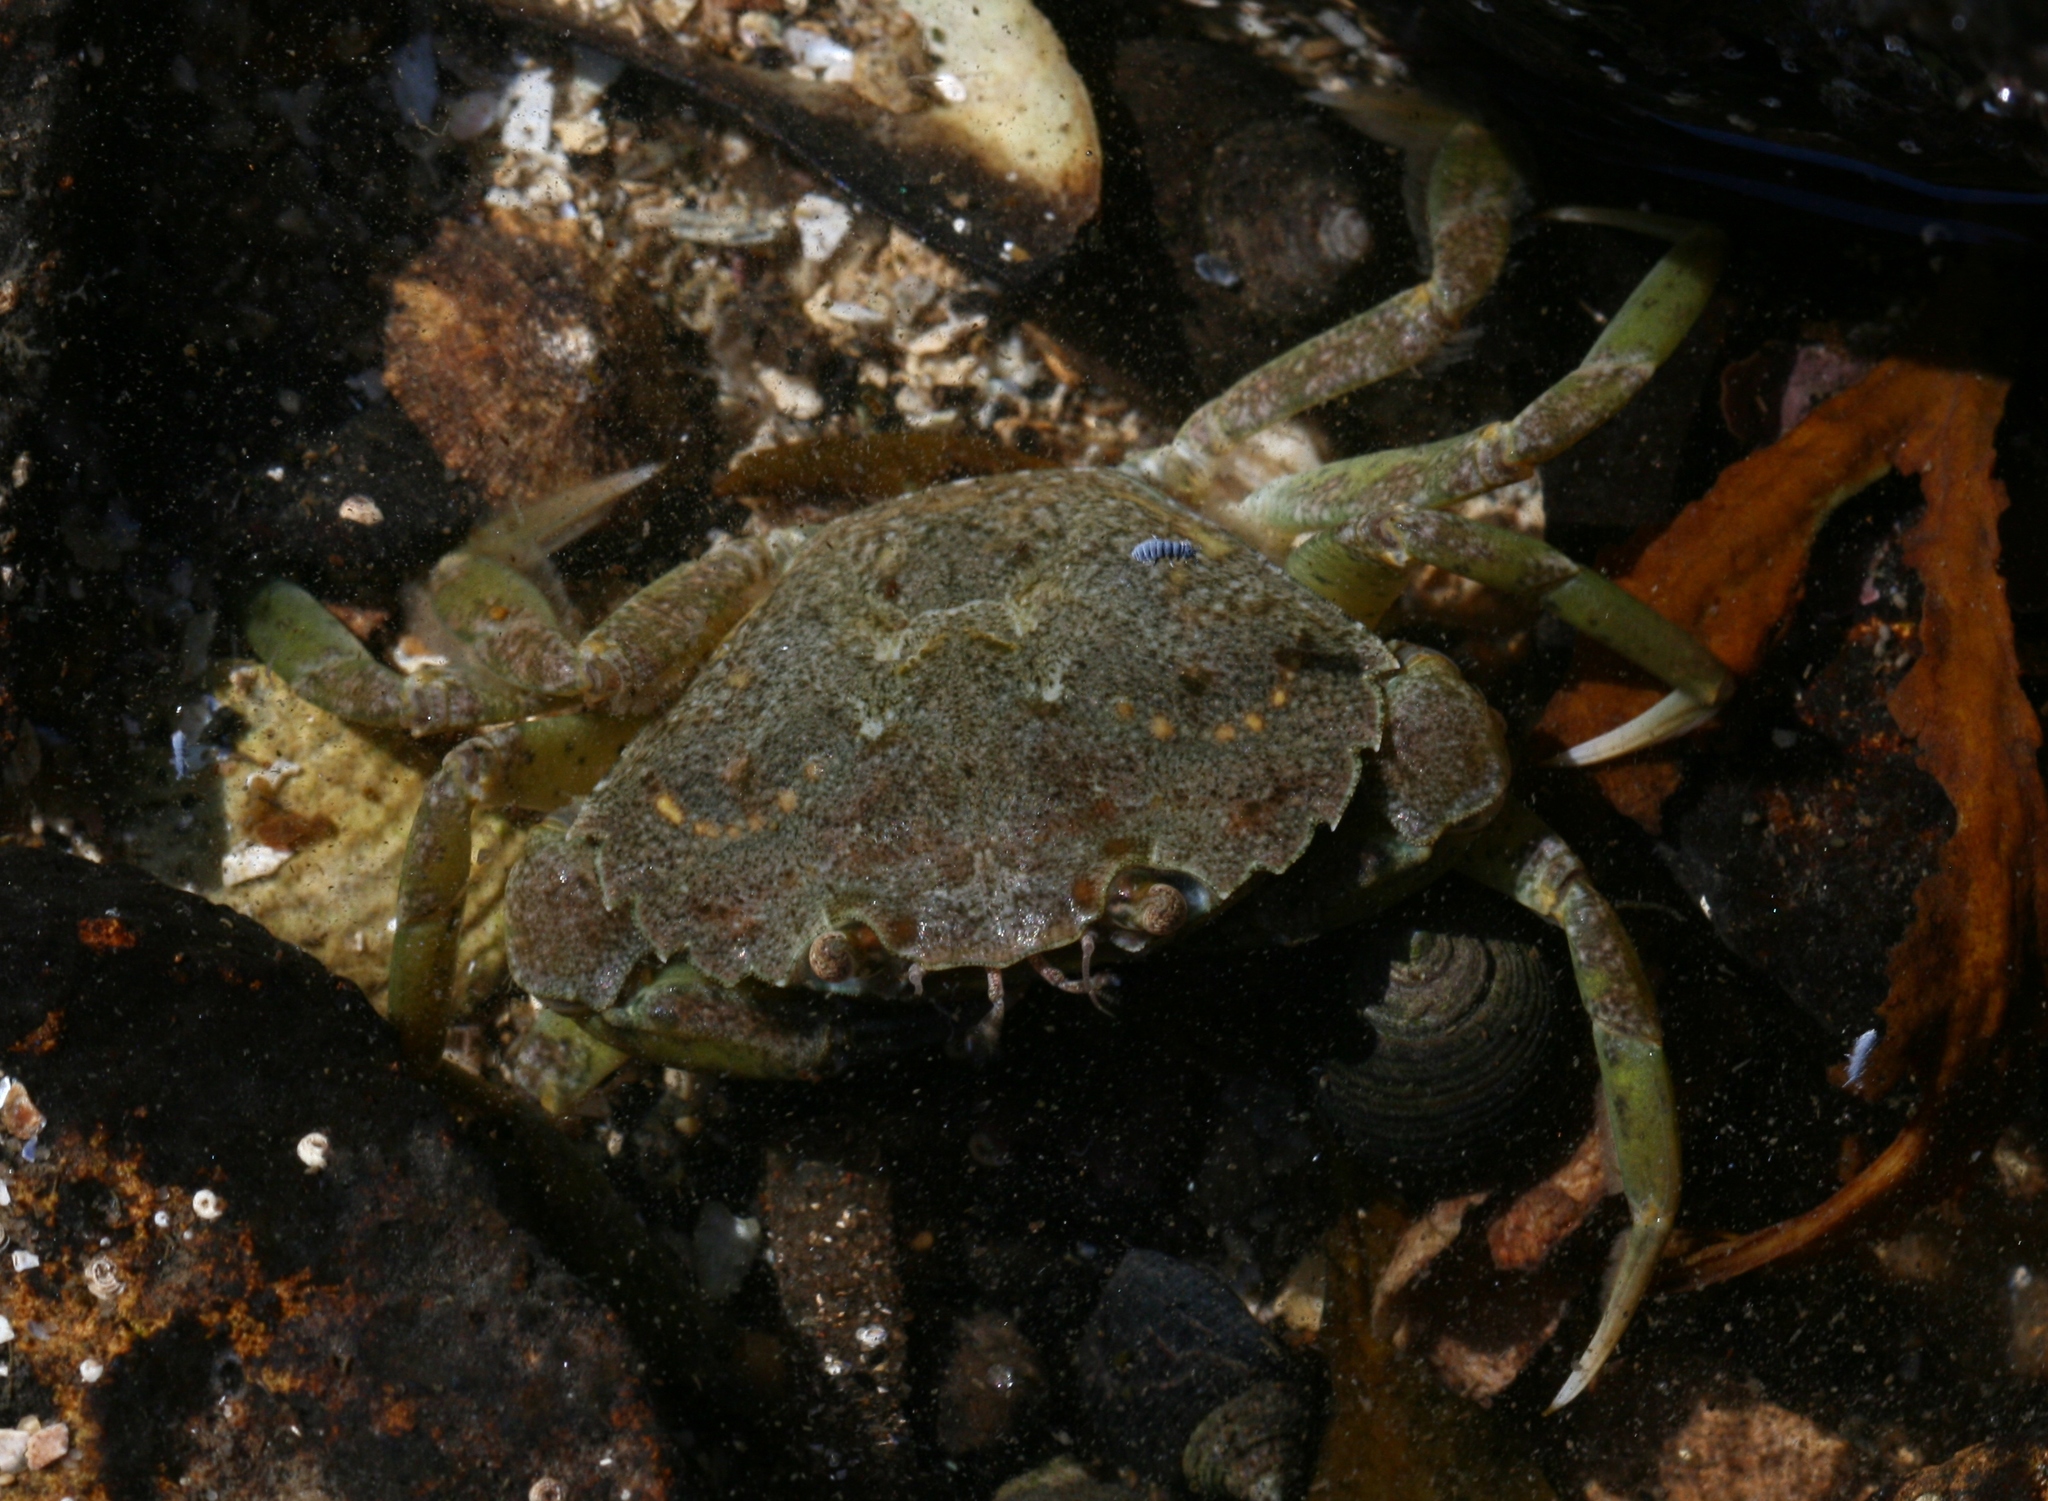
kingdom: Animalia
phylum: Arthropoda
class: Malacostraca
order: Decapoda
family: Carcinidae
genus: Carcinus
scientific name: Carcinus maenas
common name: European green crab
